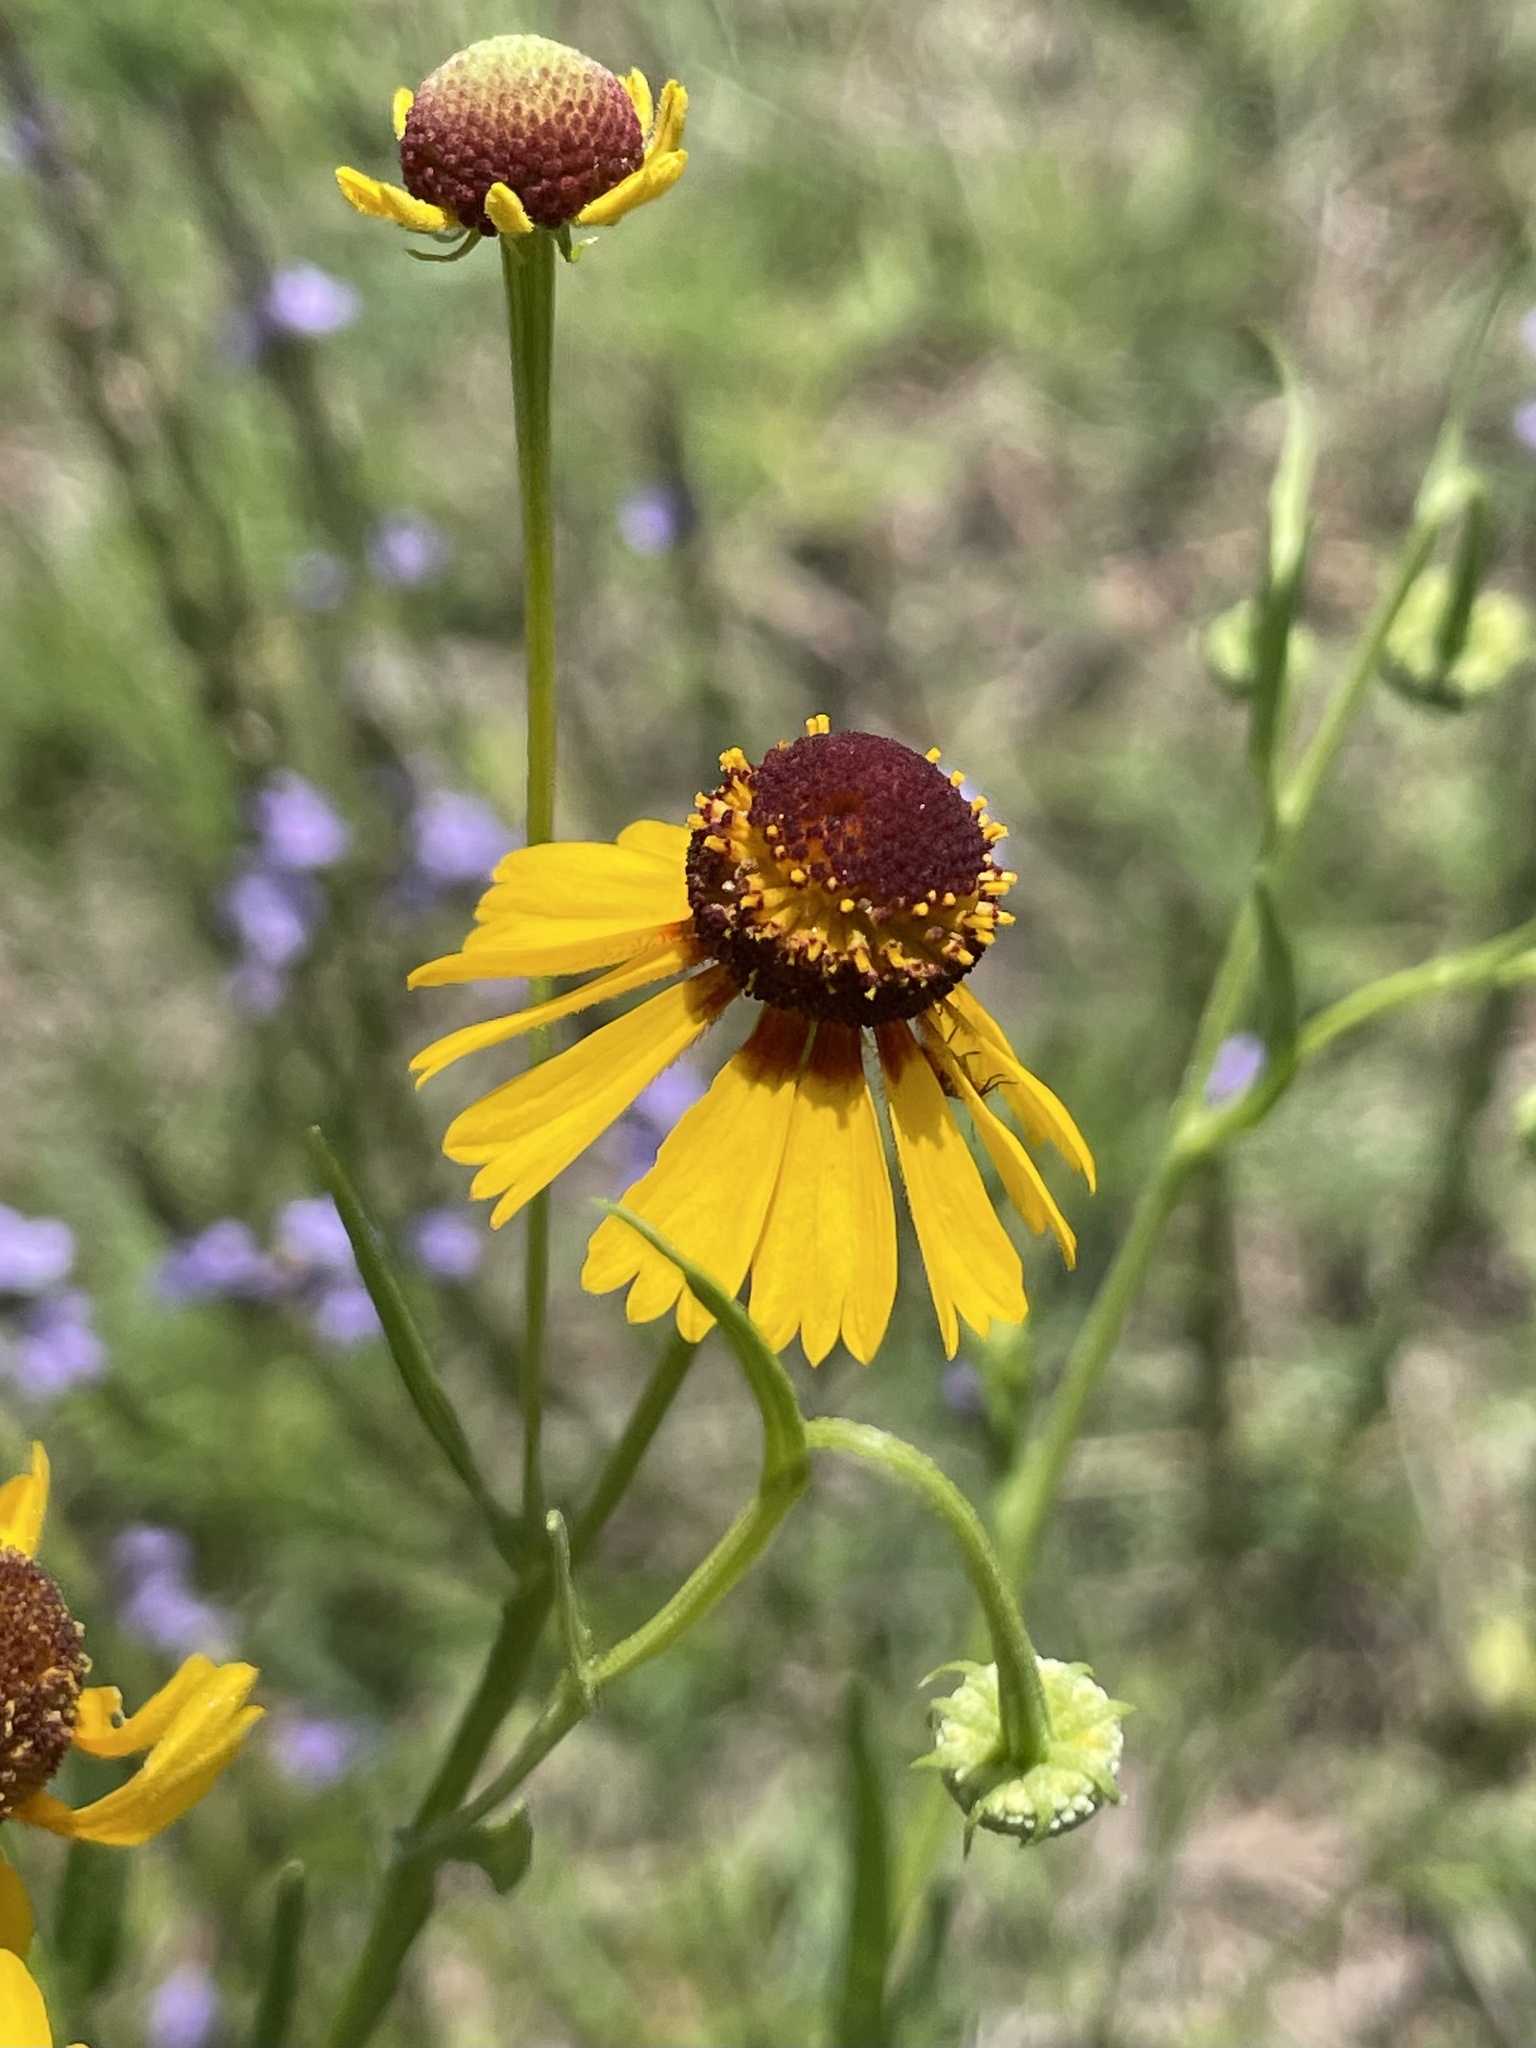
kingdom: Plantae
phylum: Tracheophyta
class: Magnoliopsida
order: Asterales
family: Asteraceae
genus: Helenium
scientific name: Helenium elegans
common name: Pretty sneezeweed
